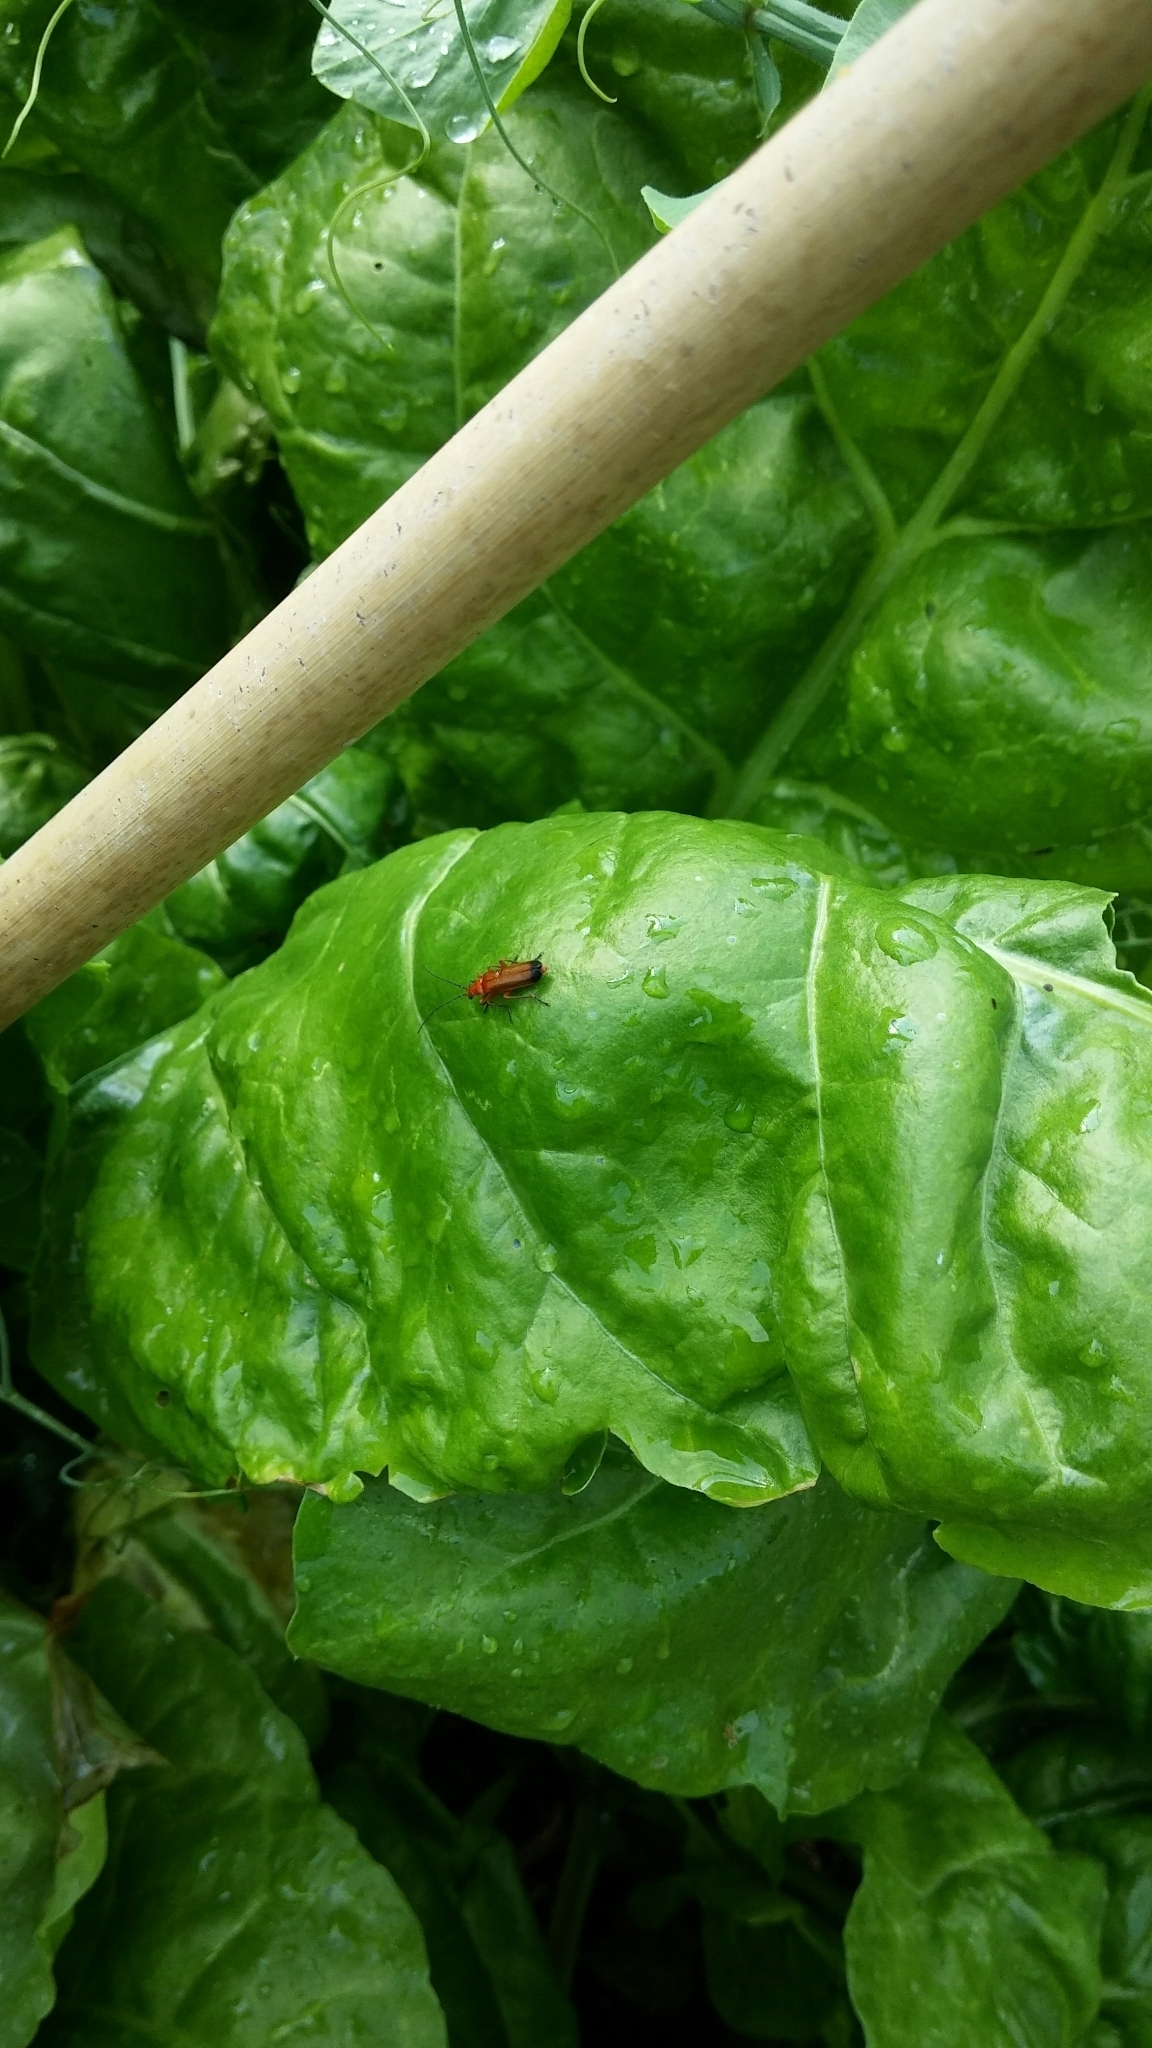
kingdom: Animalia
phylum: Arthropoda
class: Insecta
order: Coleoptera
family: Cantharidae
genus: Rhagonycha
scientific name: Rhagonycha fulva
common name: Common red soldier beetle
